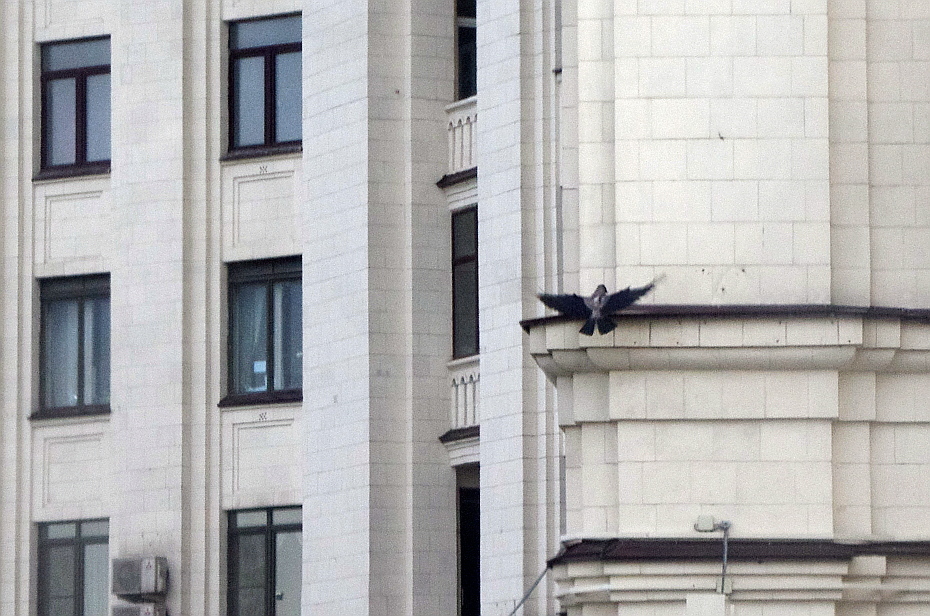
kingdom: Animalia
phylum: Chordata
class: Aves
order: Passeriformes
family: Corvidae
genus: Corvus
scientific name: Corvus cornix
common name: Hooded crow
